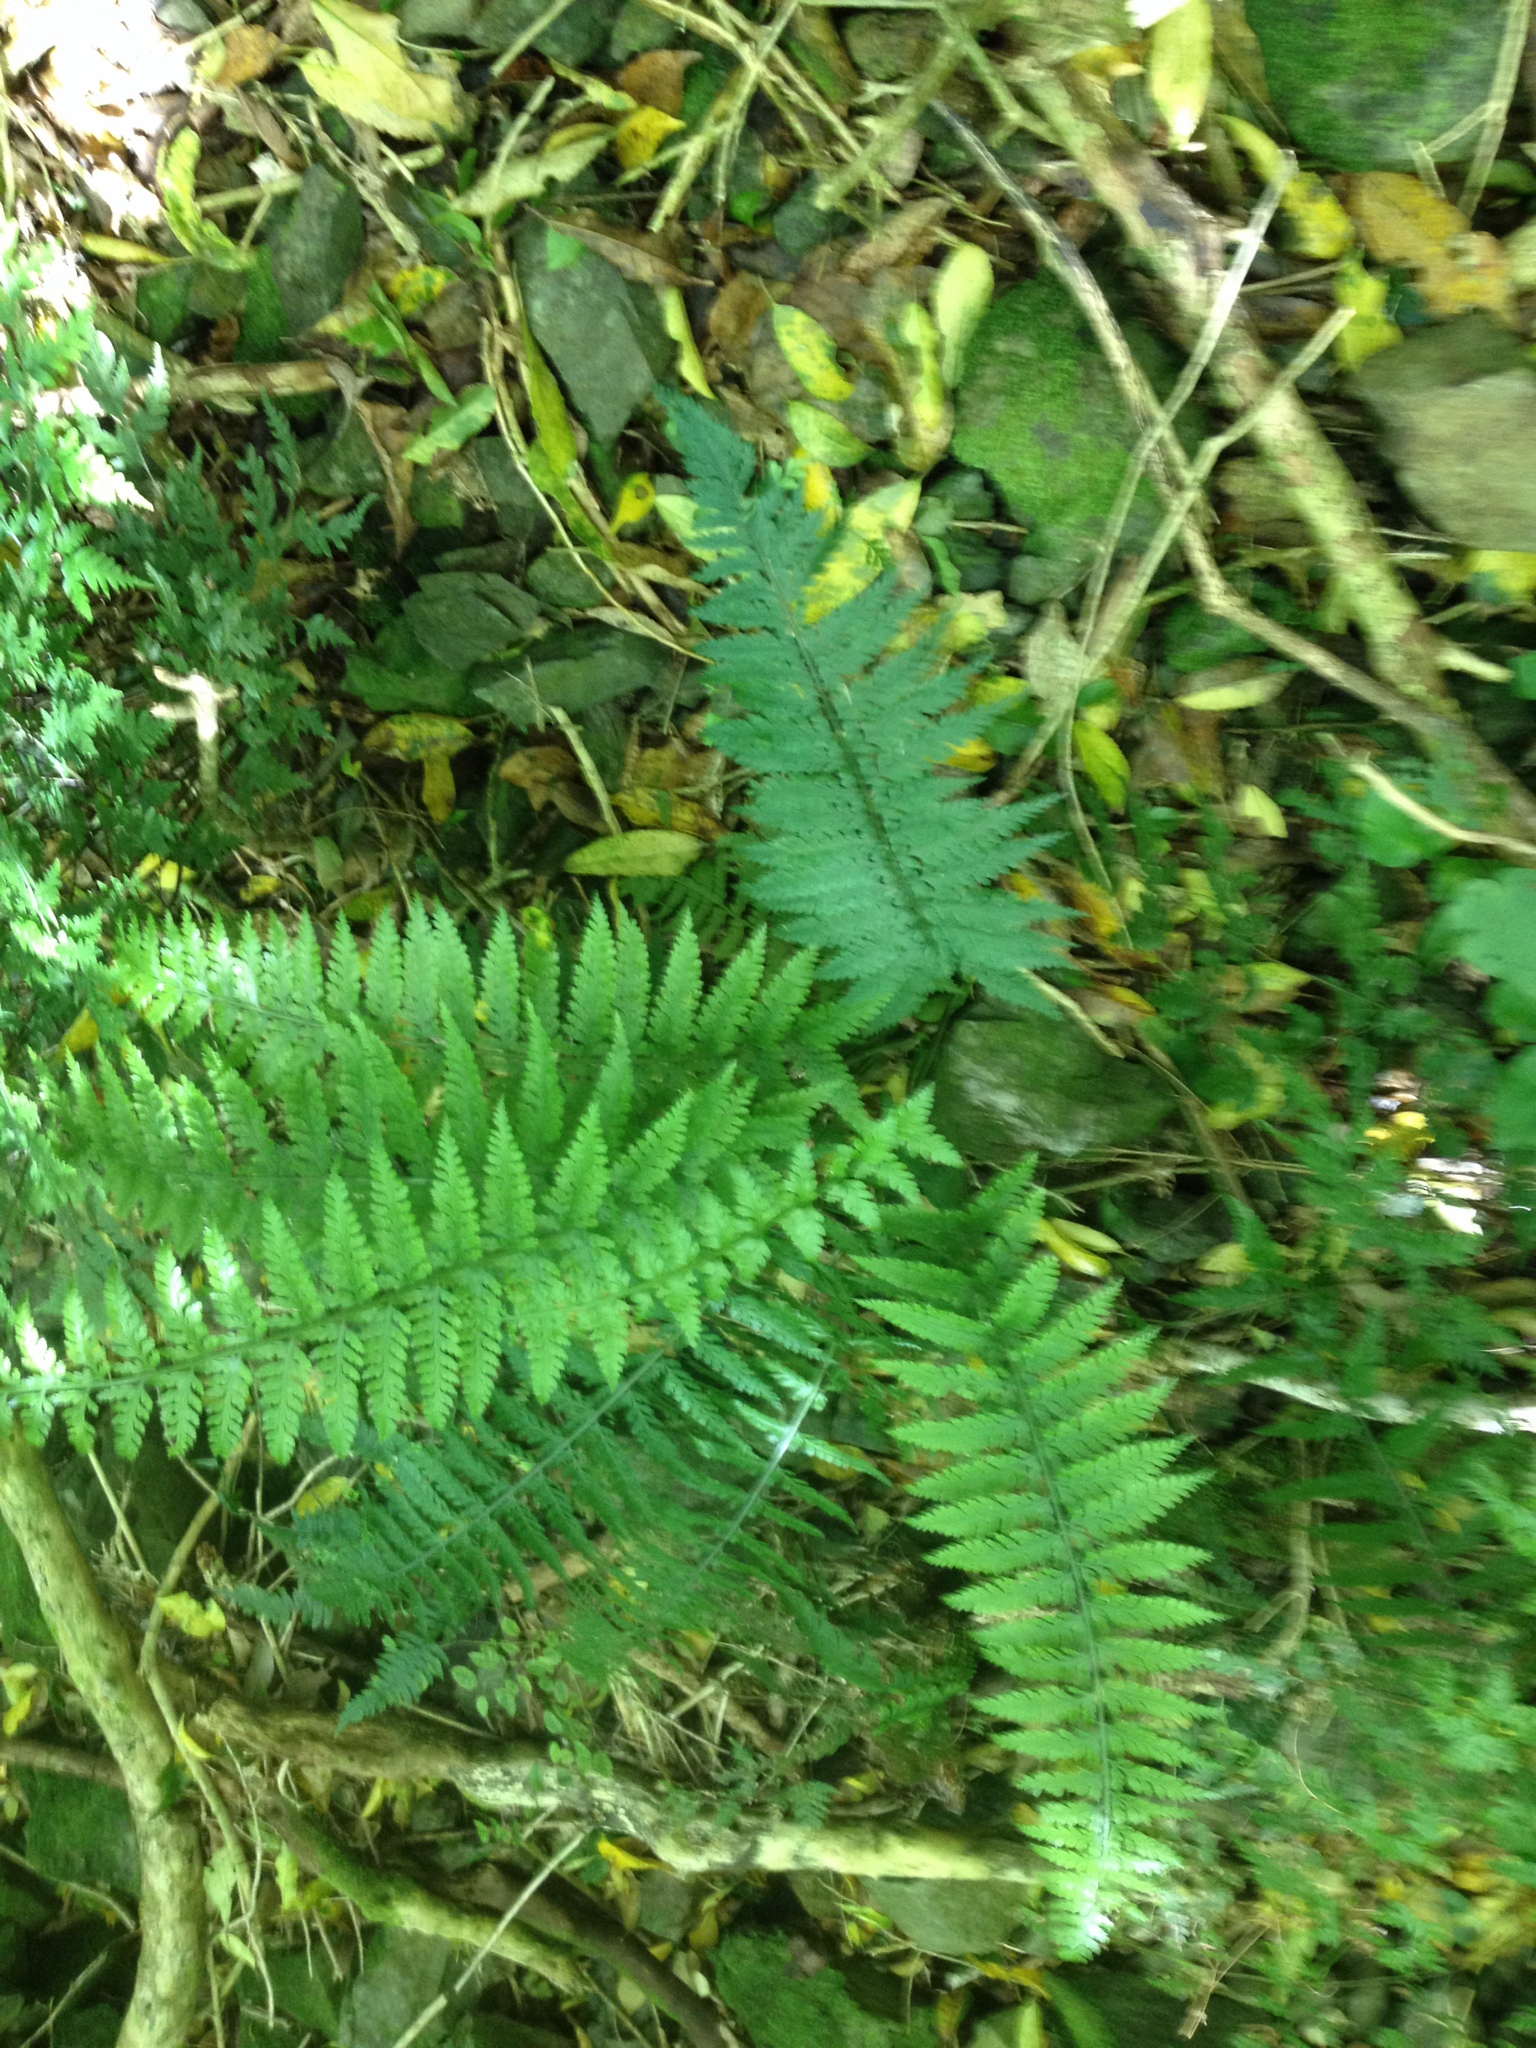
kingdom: Plantae
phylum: Tracheophyta
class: Polypodiopsida
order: Polypodiales
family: Aspleniaceae
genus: Asplenium
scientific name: Asplenium bulbiferum
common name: Mother fern
